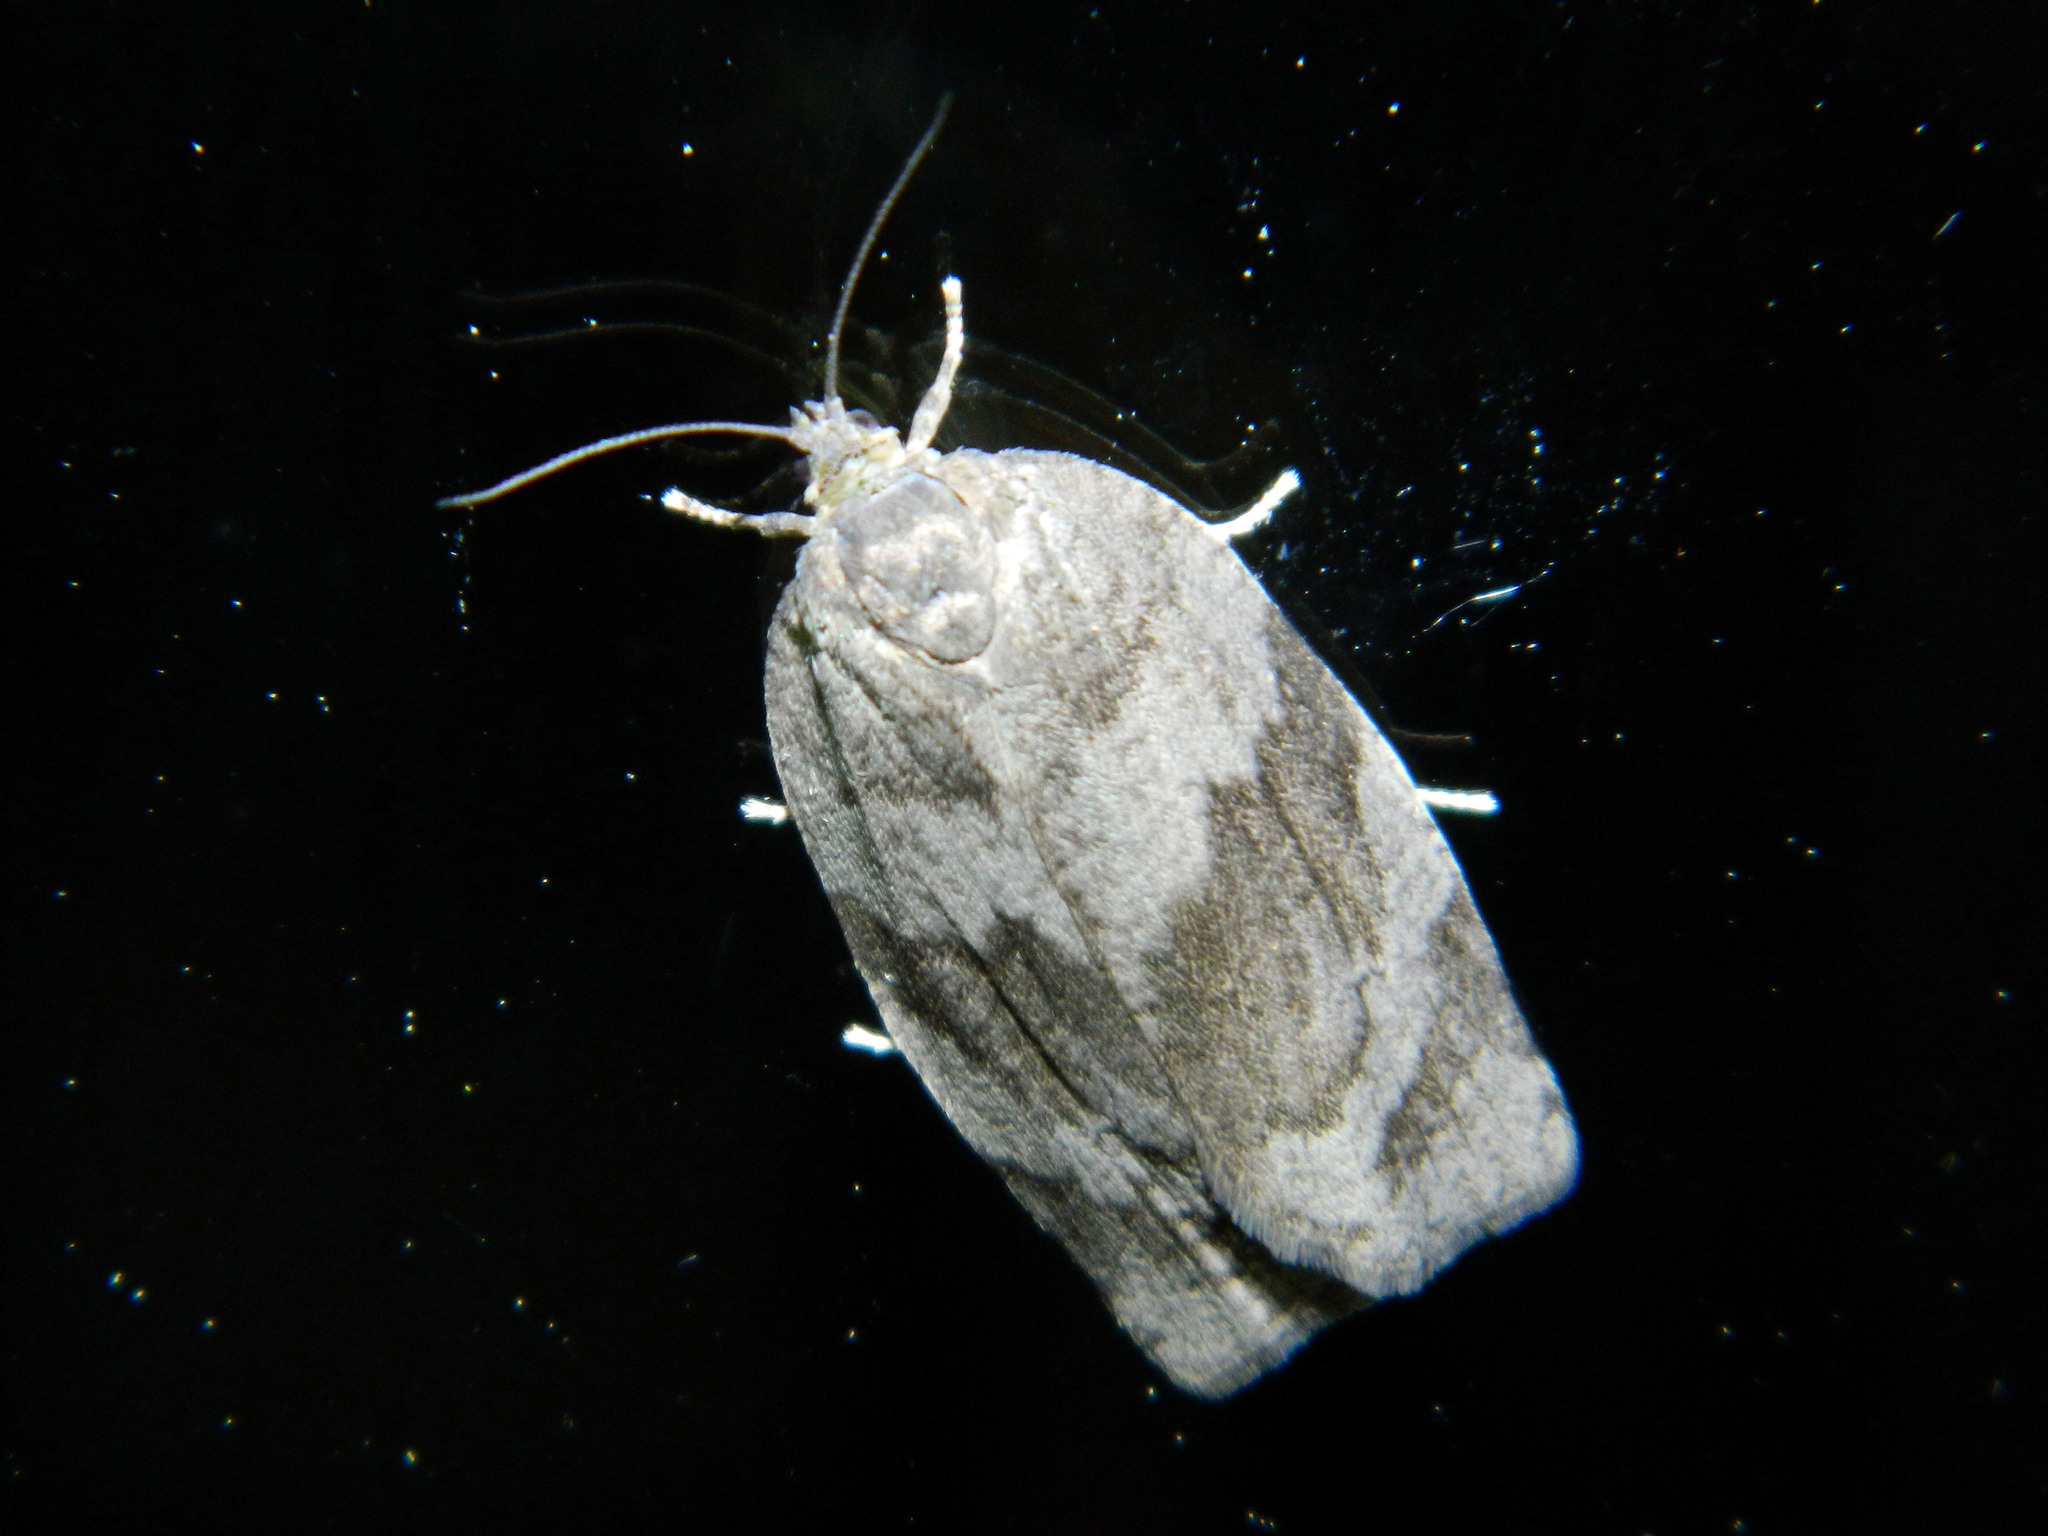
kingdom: Animalia
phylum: Arthropoda
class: Insecta
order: Lepidoptera
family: Tortricidae
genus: Choristoneura
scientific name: Choristoneura conflictana
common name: Large aspen tortrix
